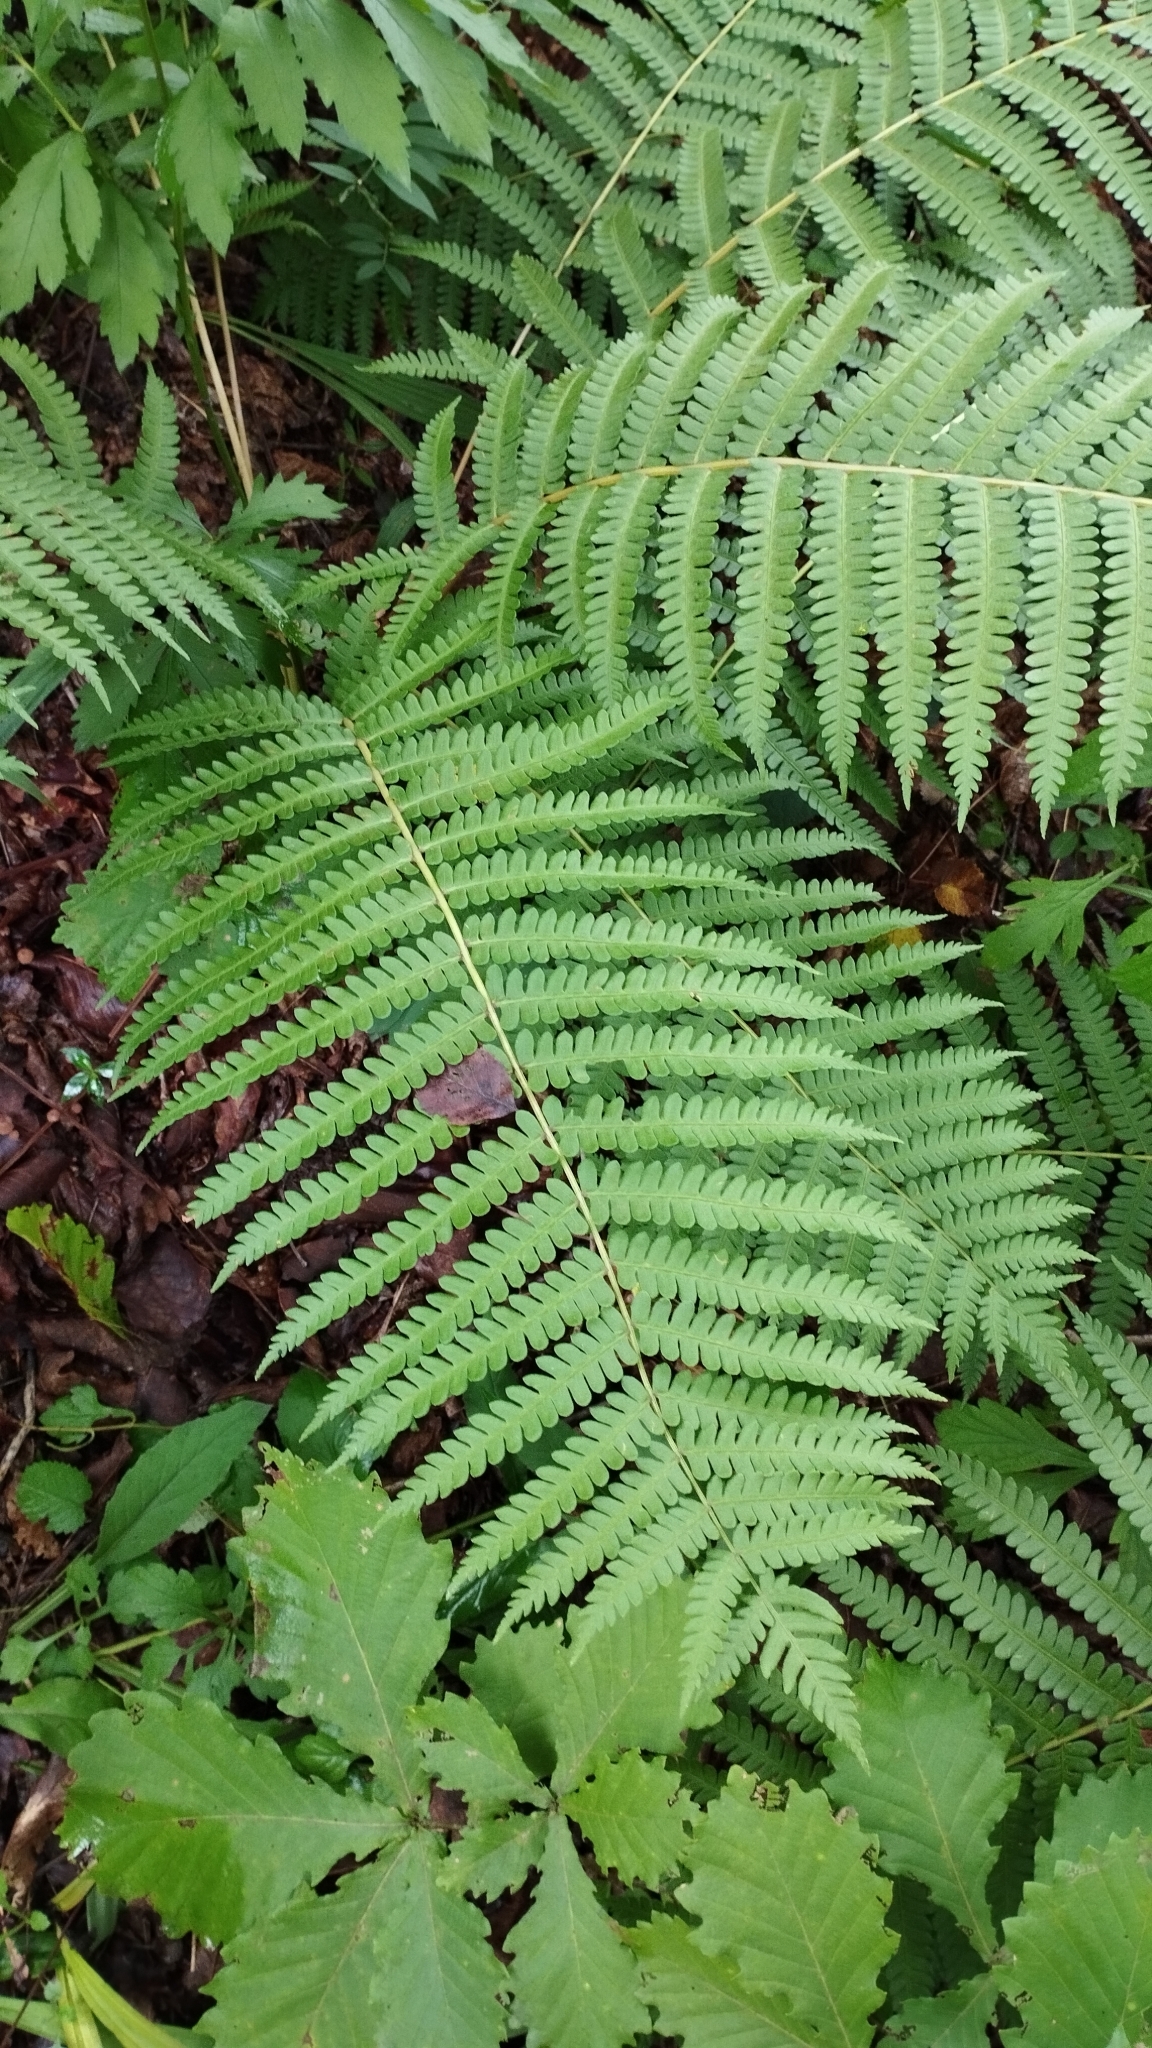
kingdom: Plantae
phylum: Tracheophyta
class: Polypodiopsida
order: Osmundales
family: Osmundaceae
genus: Osmundastrum
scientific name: Osmundastrum cinnamomeum
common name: Cinnamon fern
